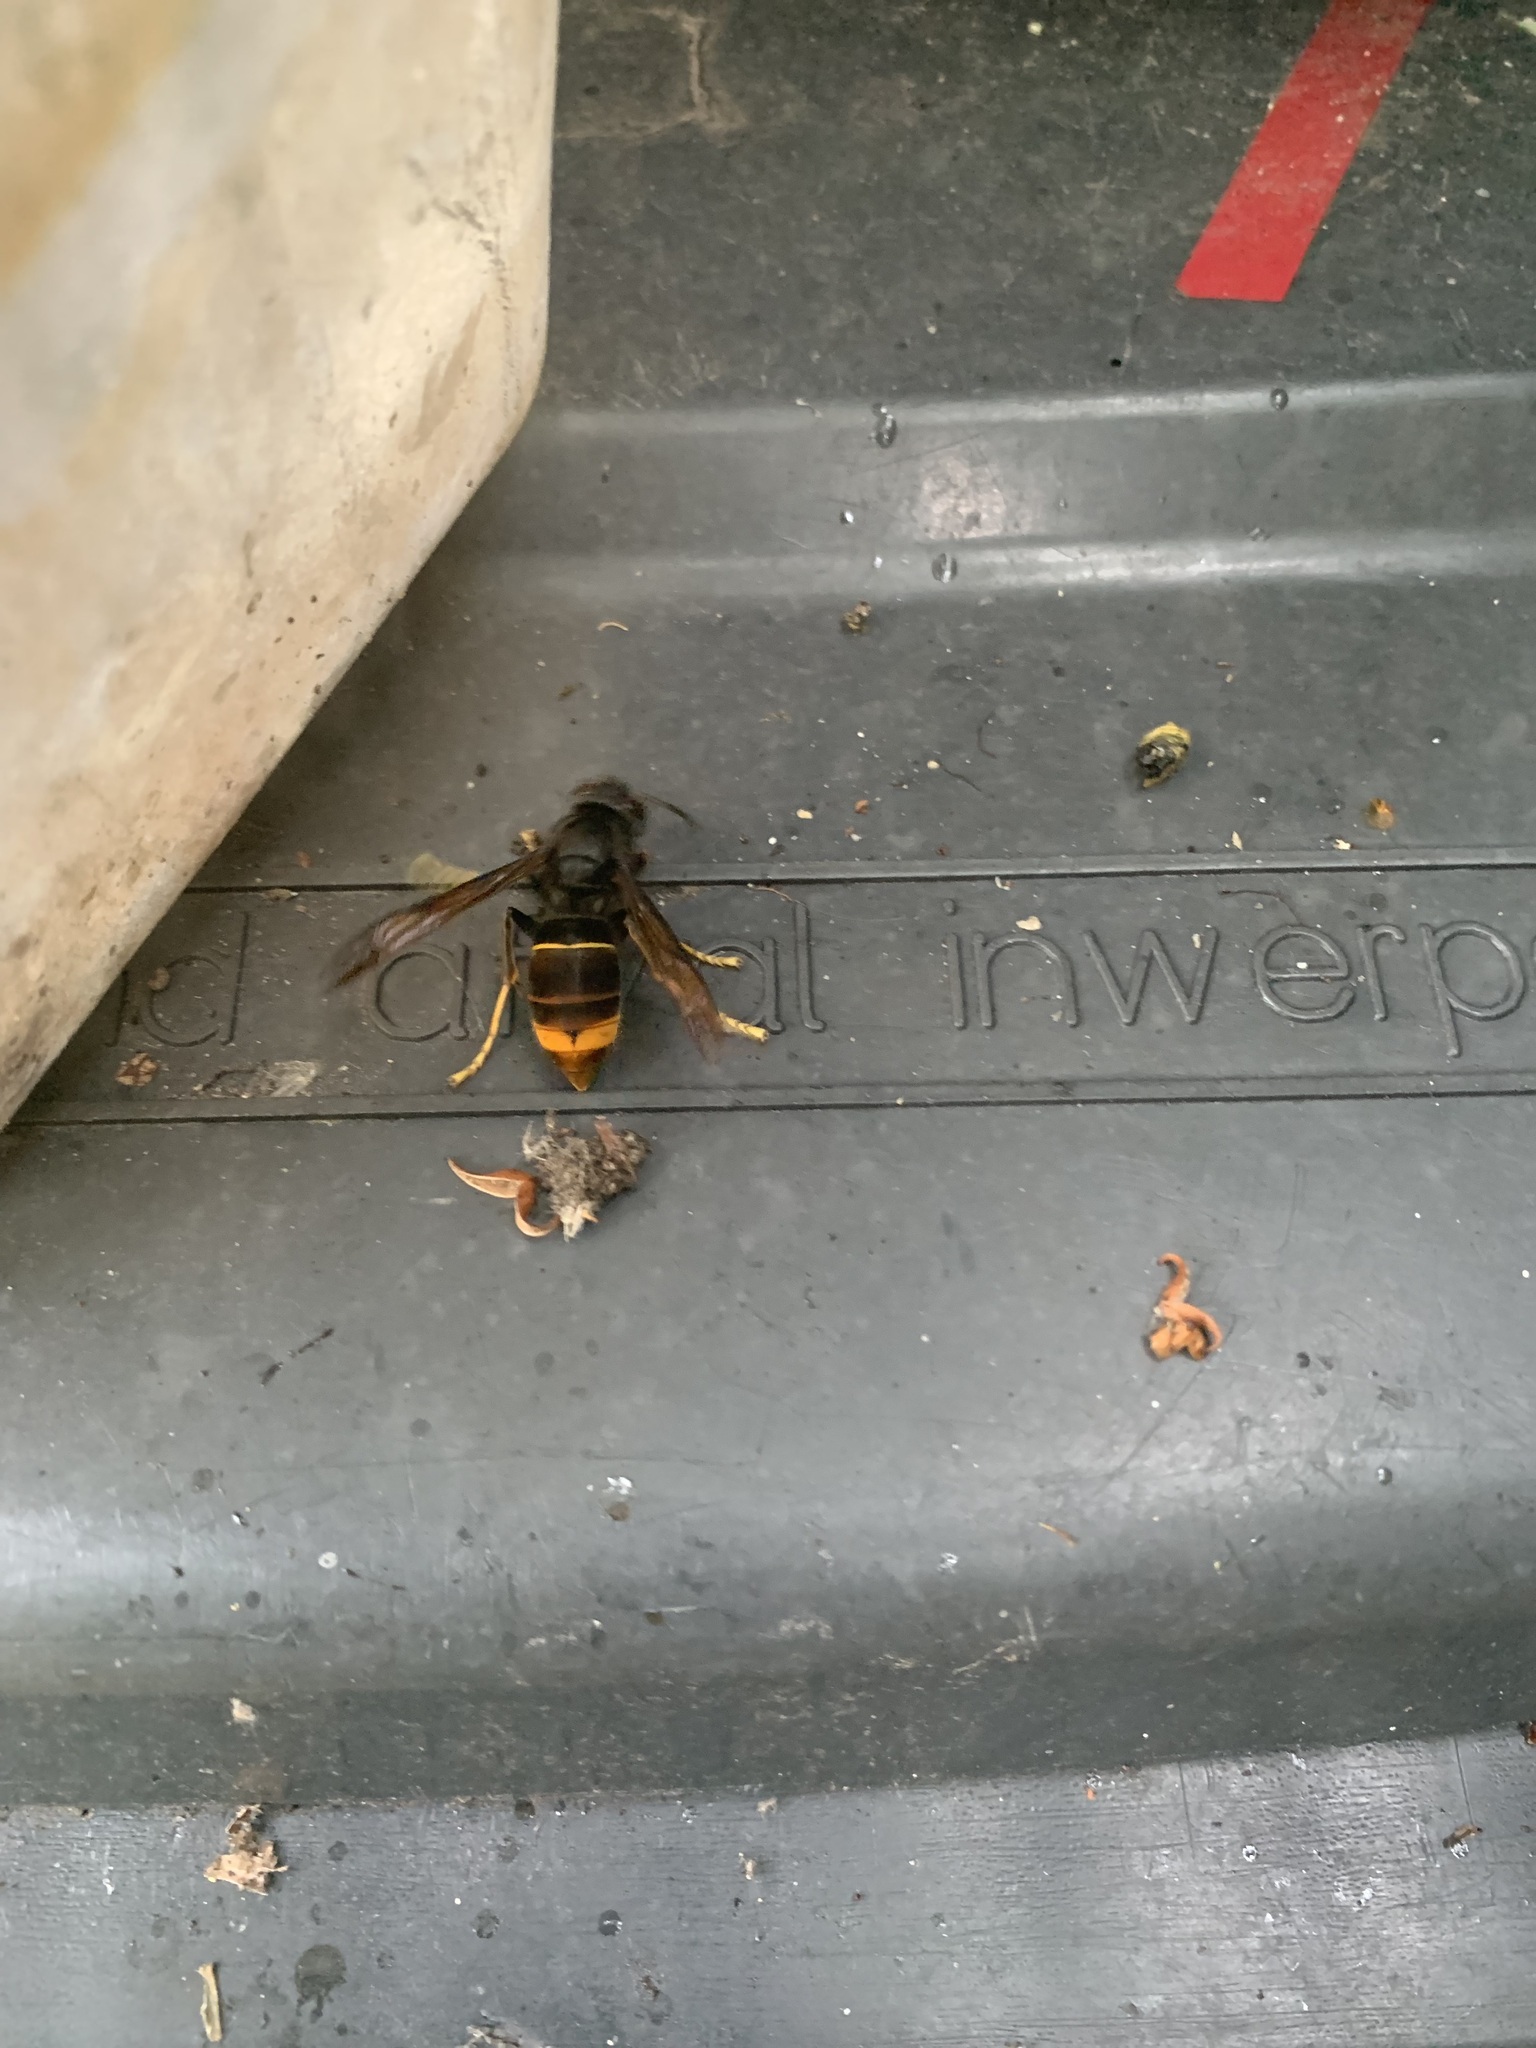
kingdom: Animalia
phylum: Arthropoda
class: Insecta
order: Hymenoptera
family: Vespidae
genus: Vespa
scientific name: Vespa velutina
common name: Asian hornet
